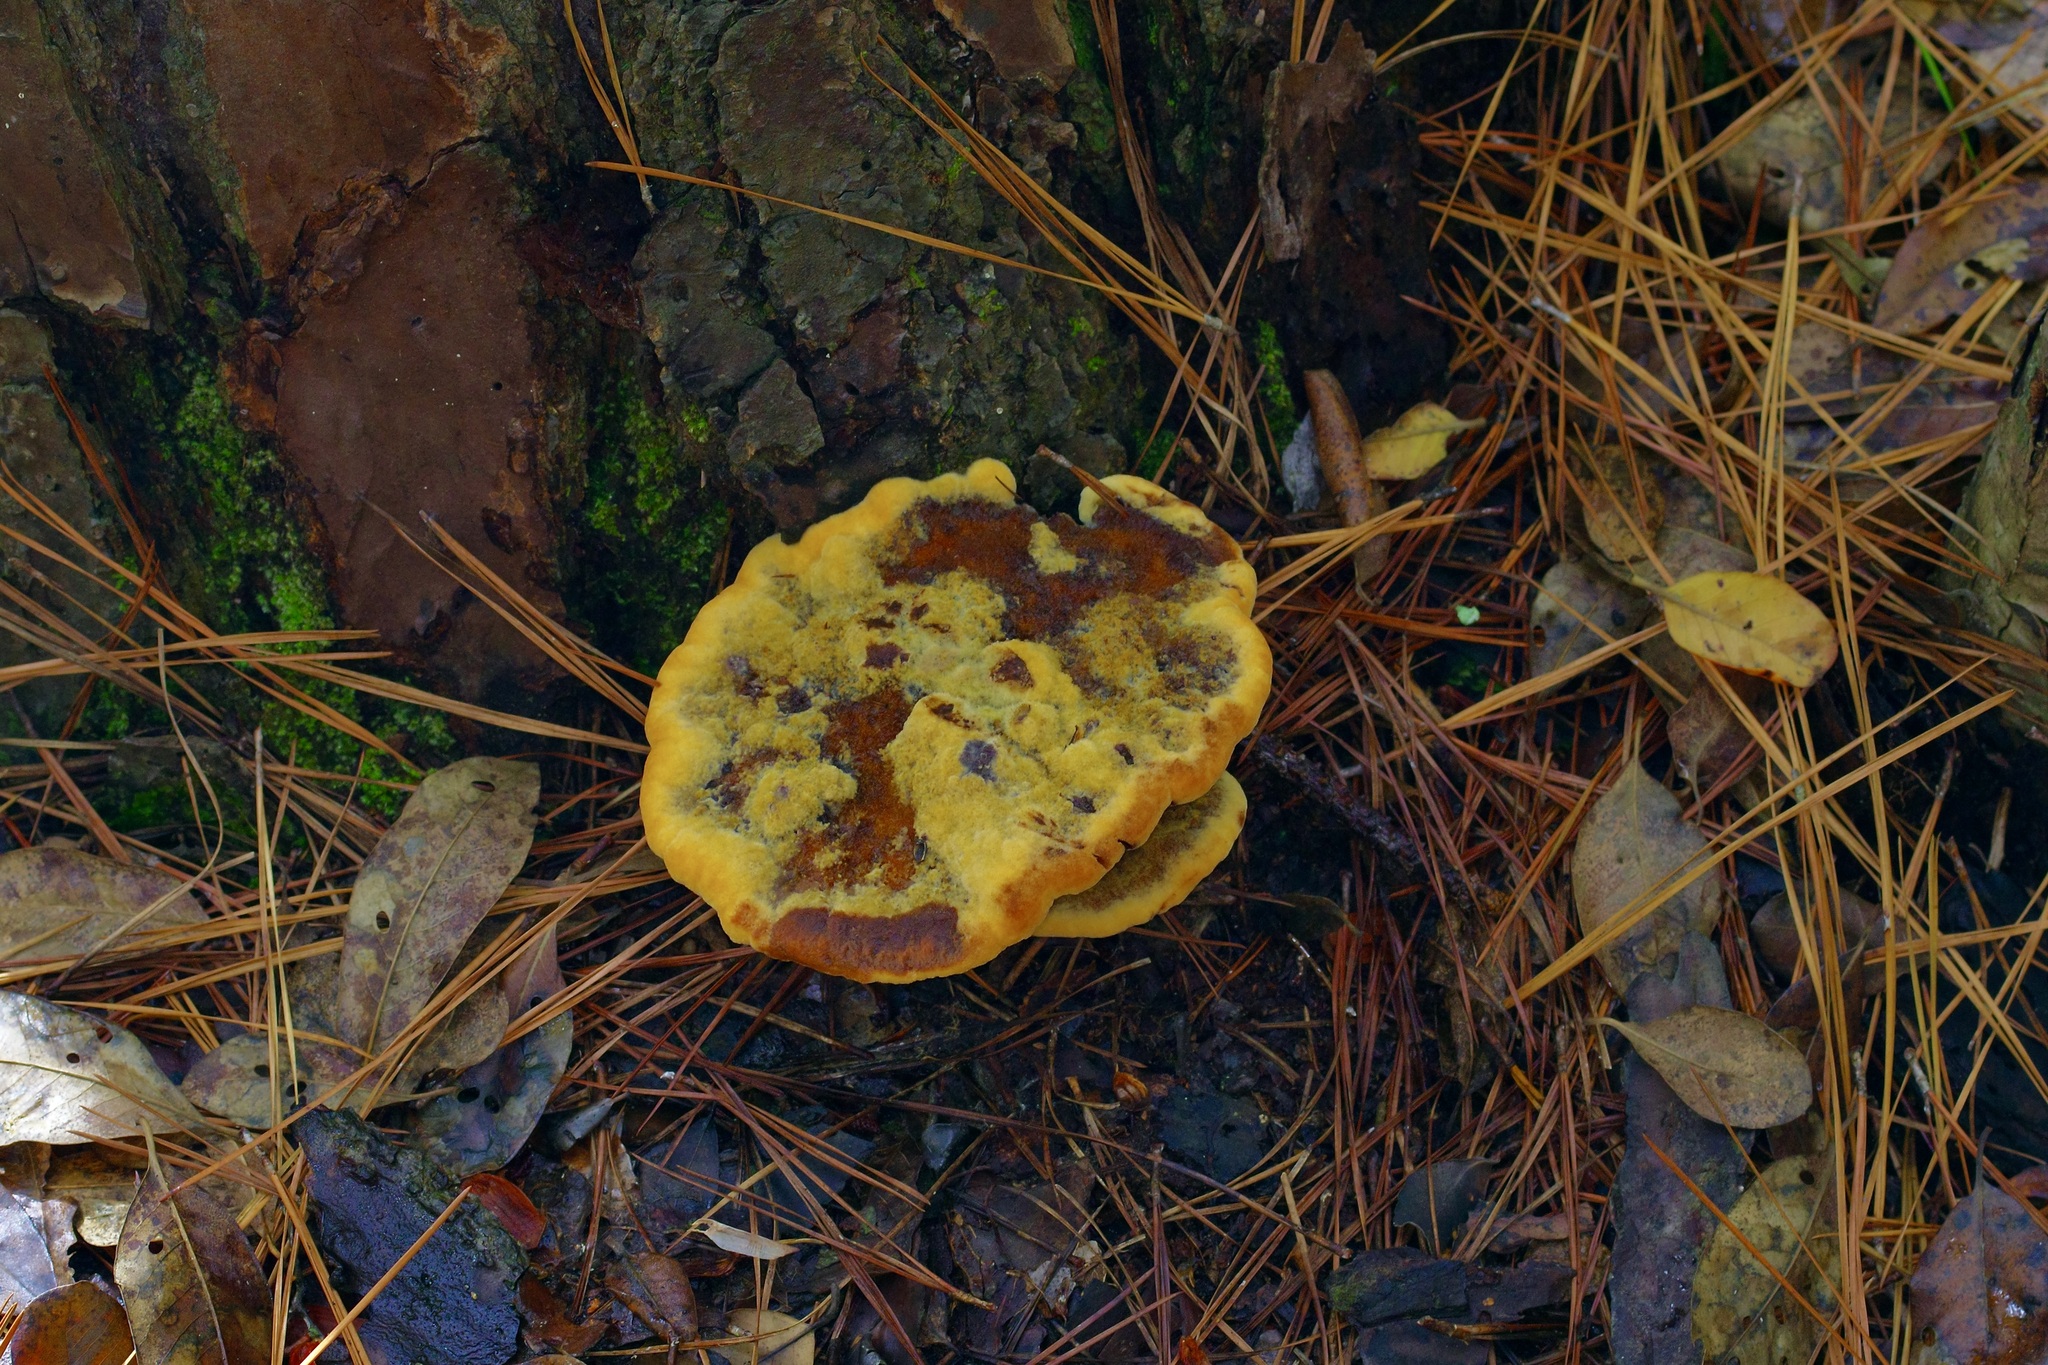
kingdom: Fungi
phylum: Basidiomycota
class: Agaricomycetes
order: Polyporales
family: Laetiporaceae
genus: Phaeolus
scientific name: Phaeolus schweinitzii
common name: Dyer's mazegill
